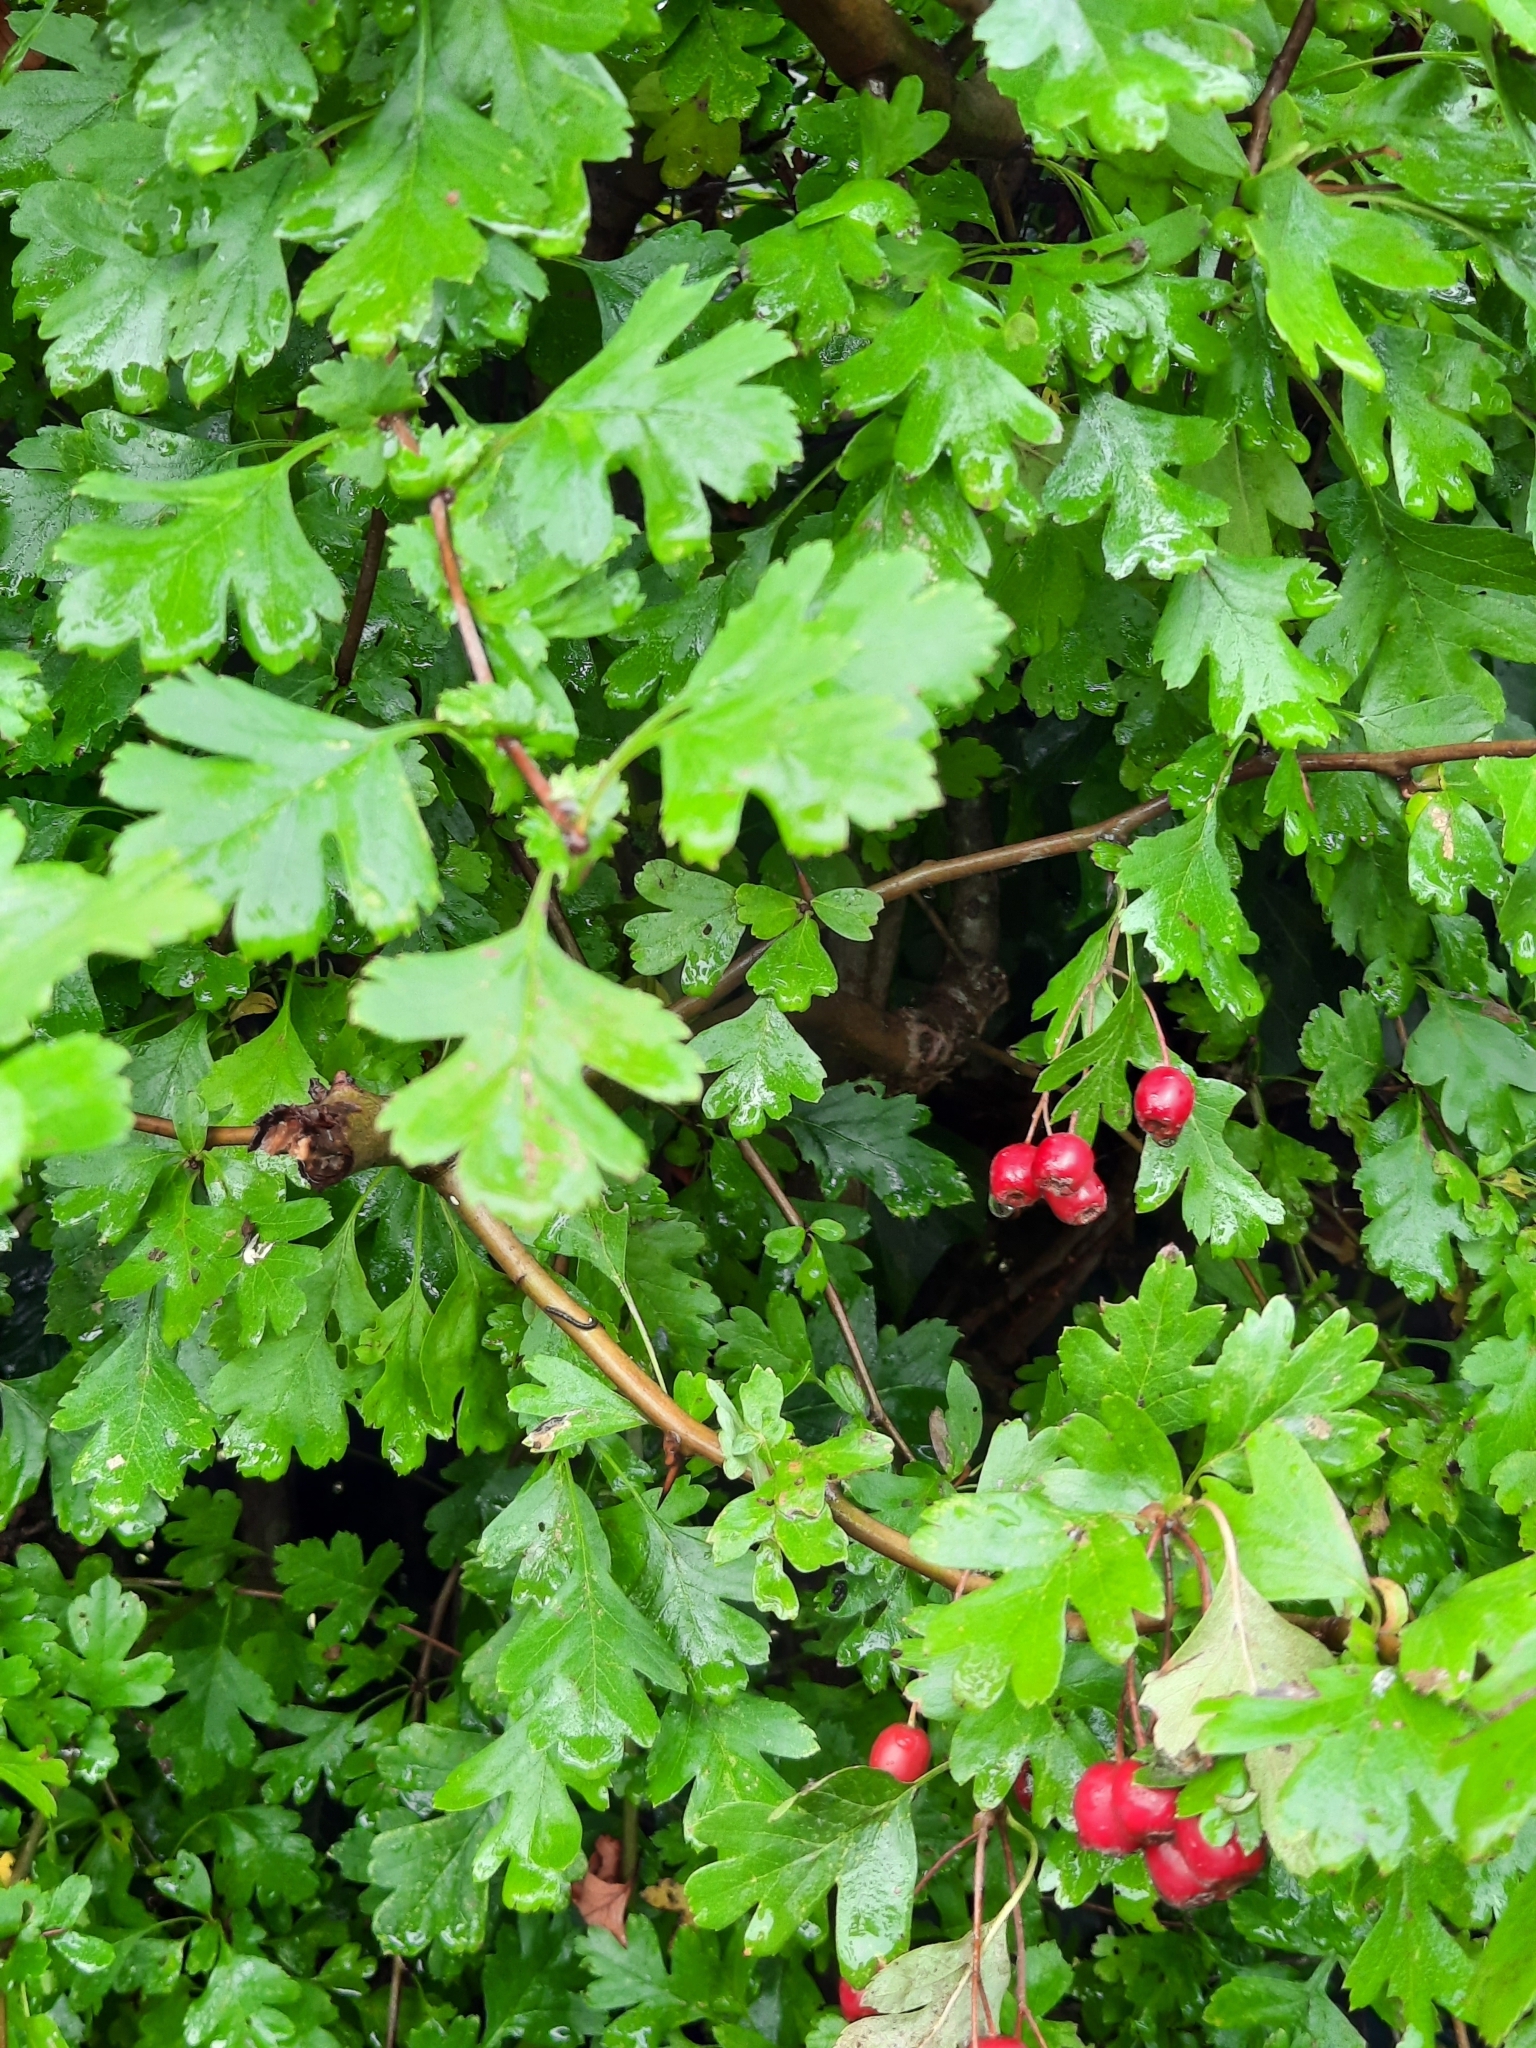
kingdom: Plantae
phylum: Tracheophyta
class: Magnoliopsida
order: Rosales
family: Rosaceae
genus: Crataegus
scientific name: Crataegus monogyna
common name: Hawthorn
